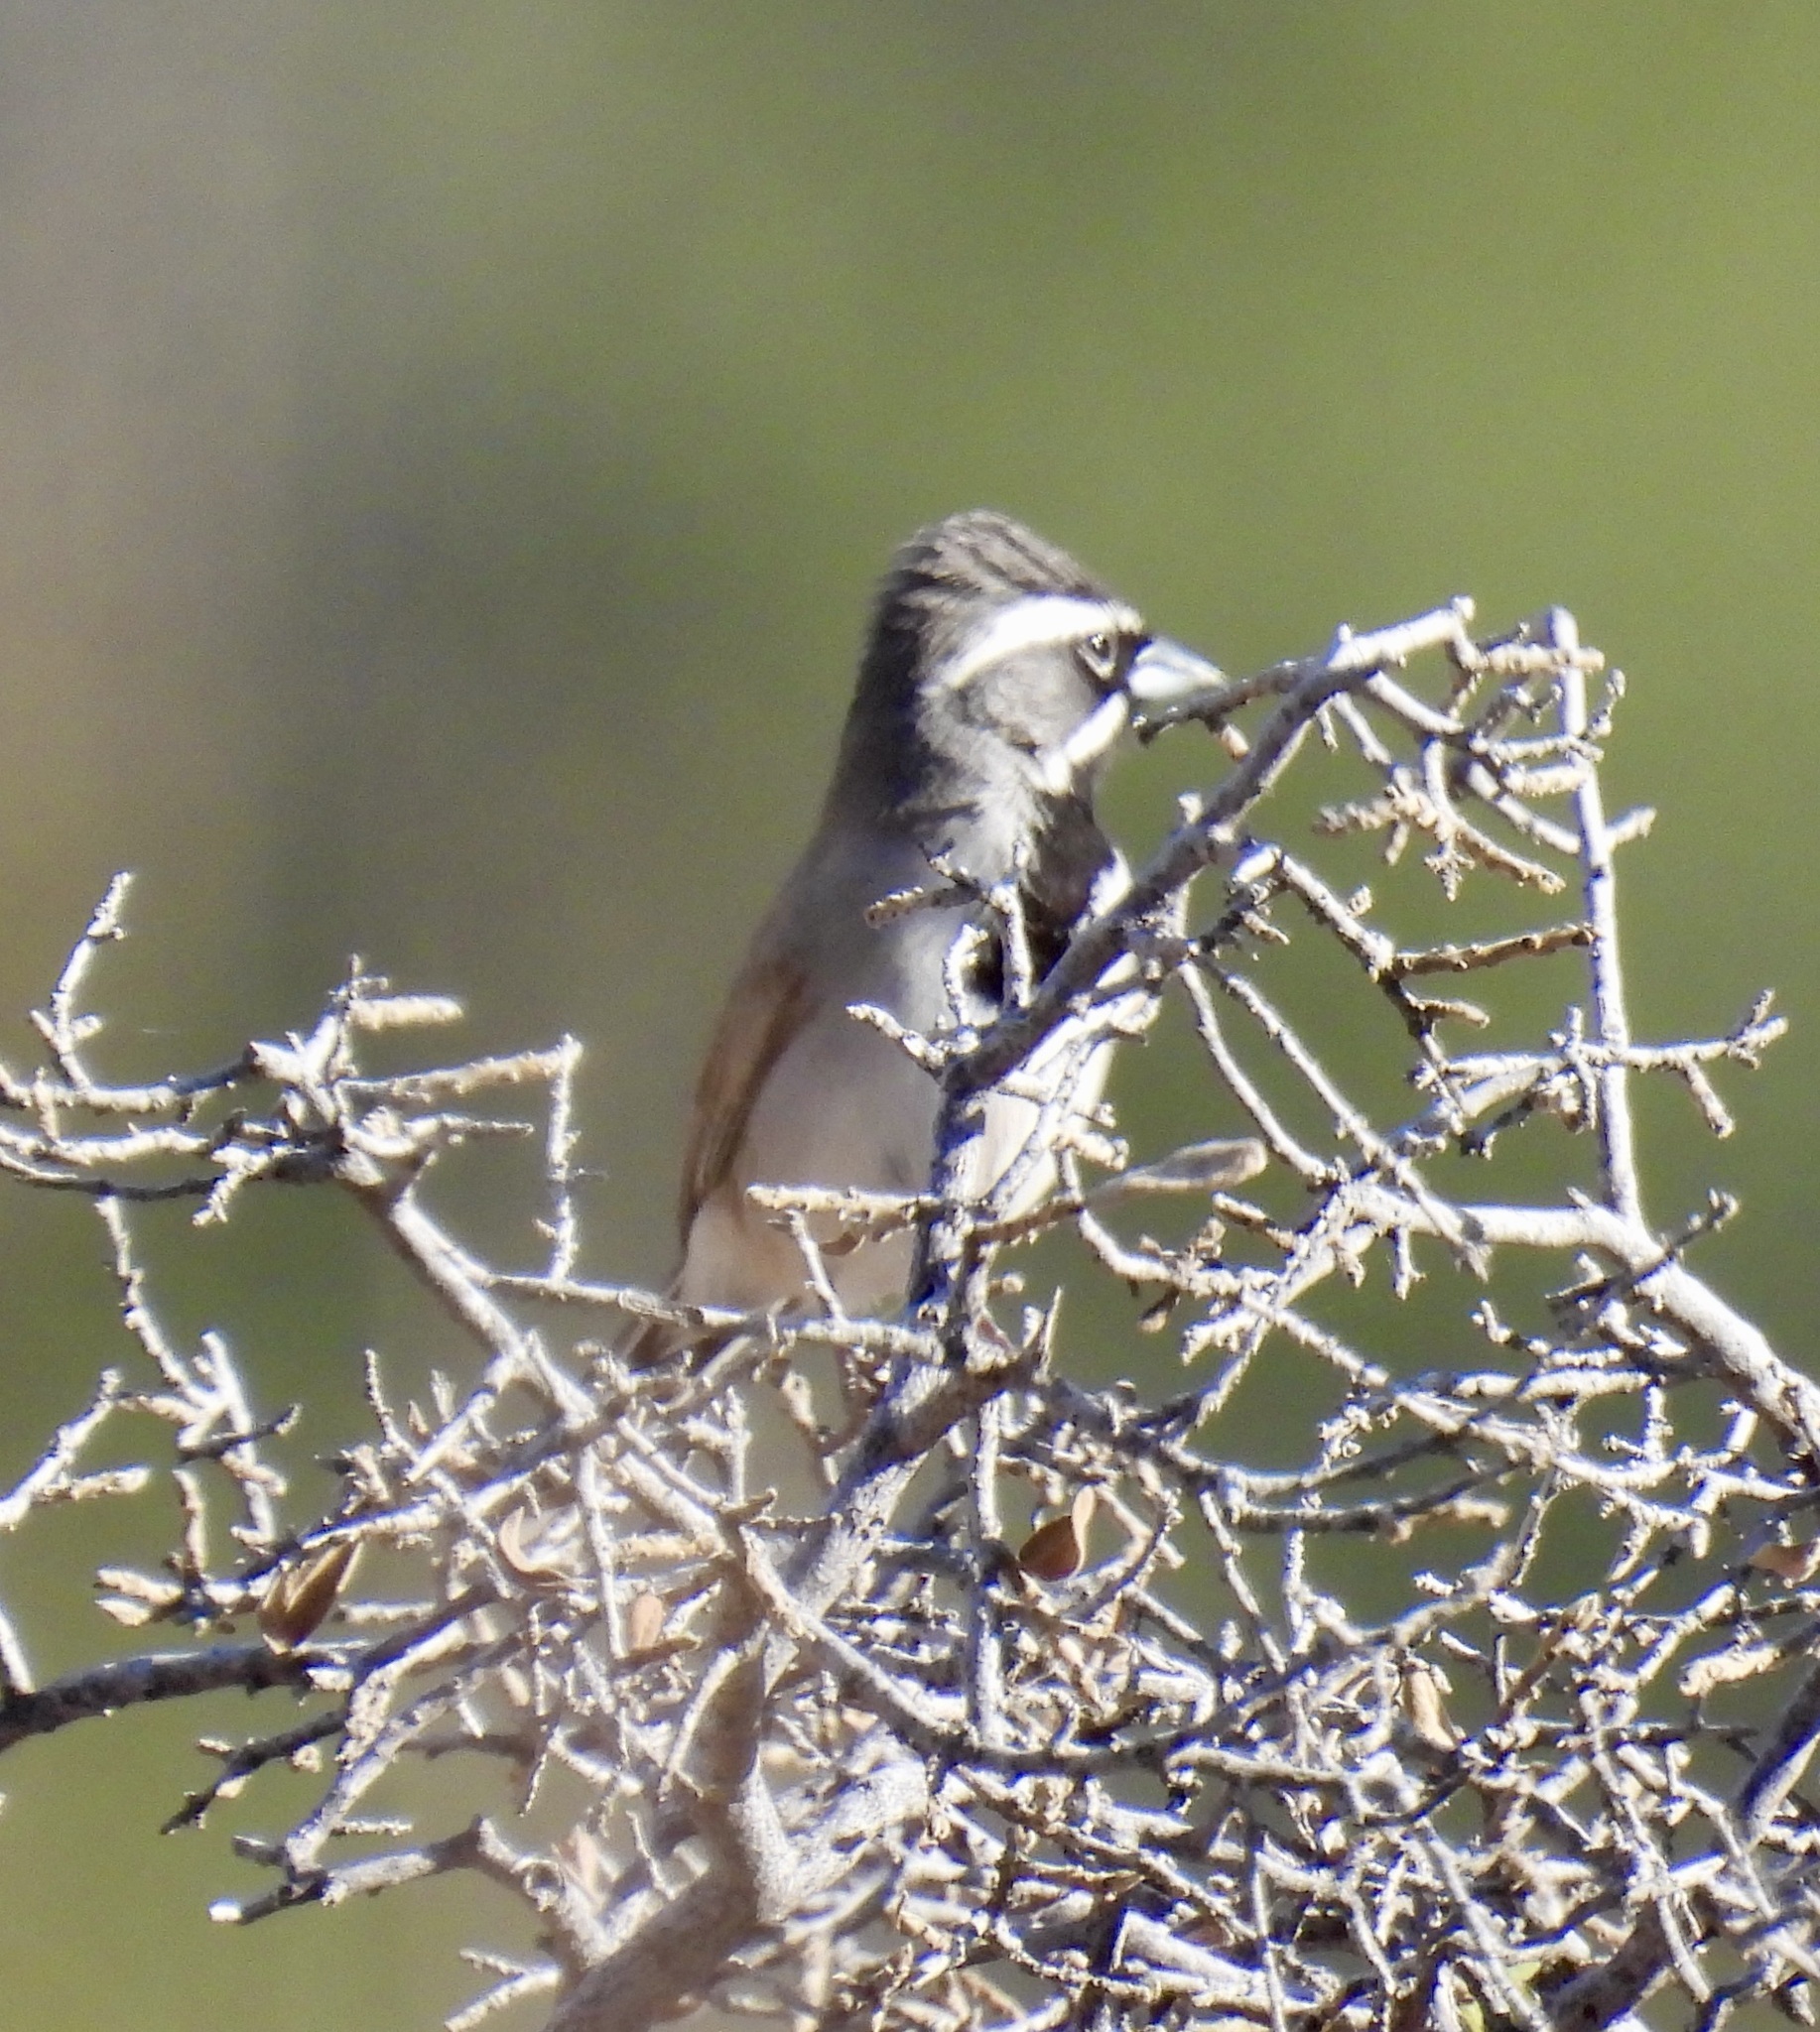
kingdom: Animalia
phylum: Chordata
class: Aves
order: Passeriformes
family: Passerellidae
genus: Amphispiza
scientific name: Amphispiza bilineata
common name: Black-throated sparrow
